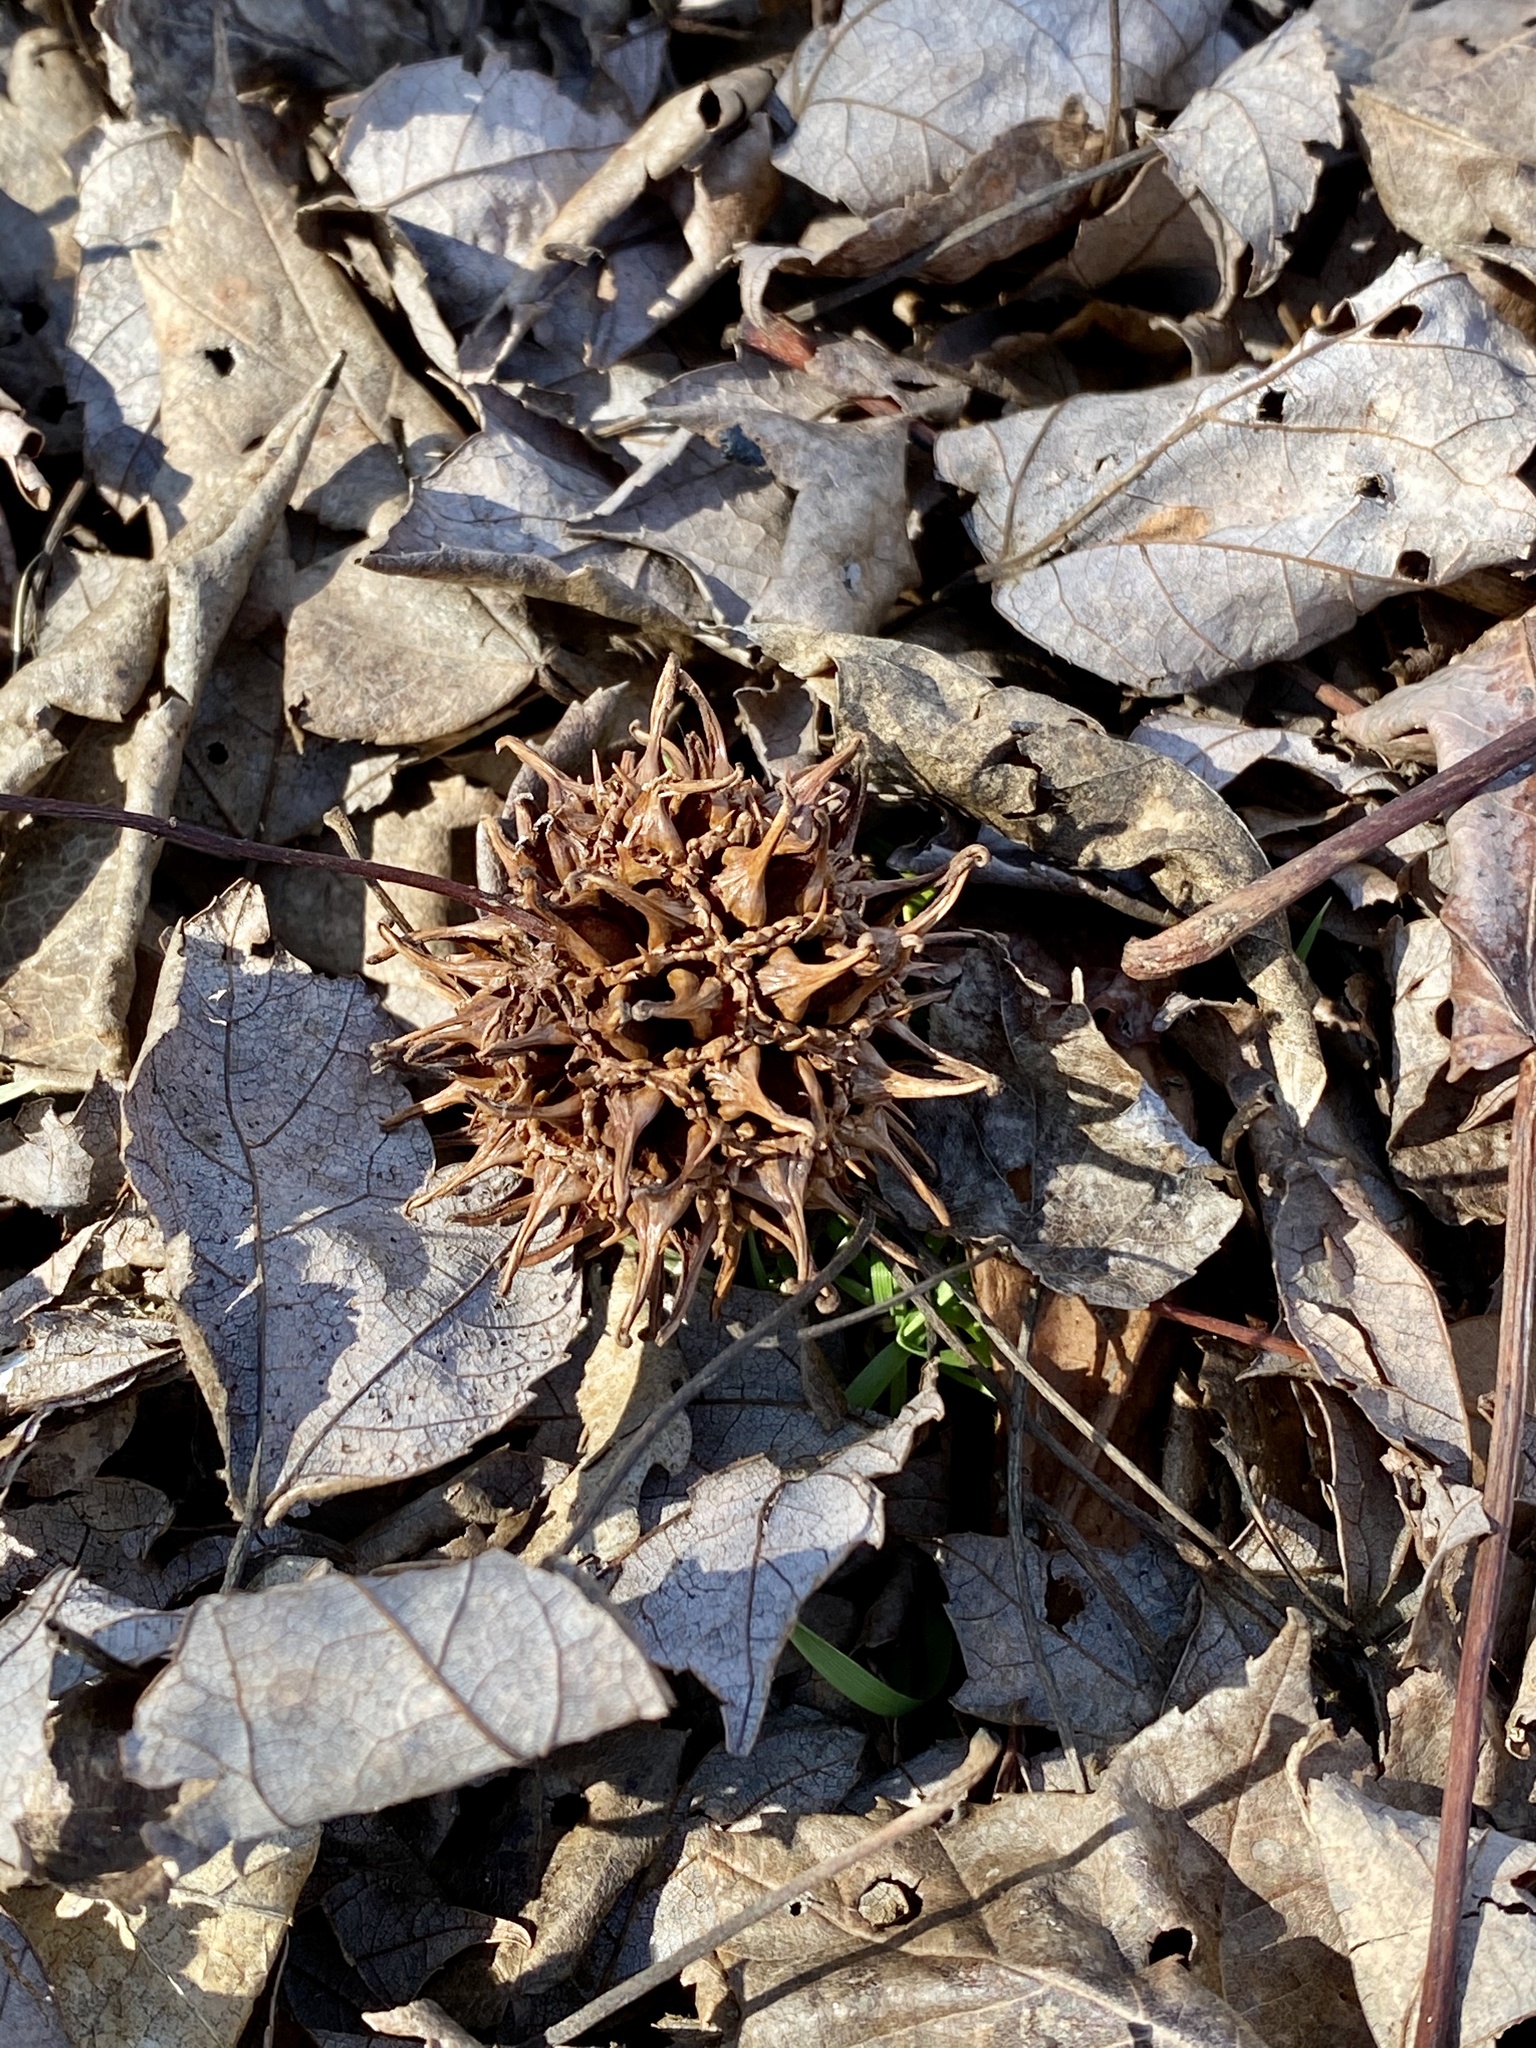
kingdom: Plantae
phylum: Tracheophyta
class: Magnoliopsida
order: Saxifragales
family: Altingiaceae
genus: Liquidambar
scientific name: Liquidambar styraciflua
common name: Sweet gum
